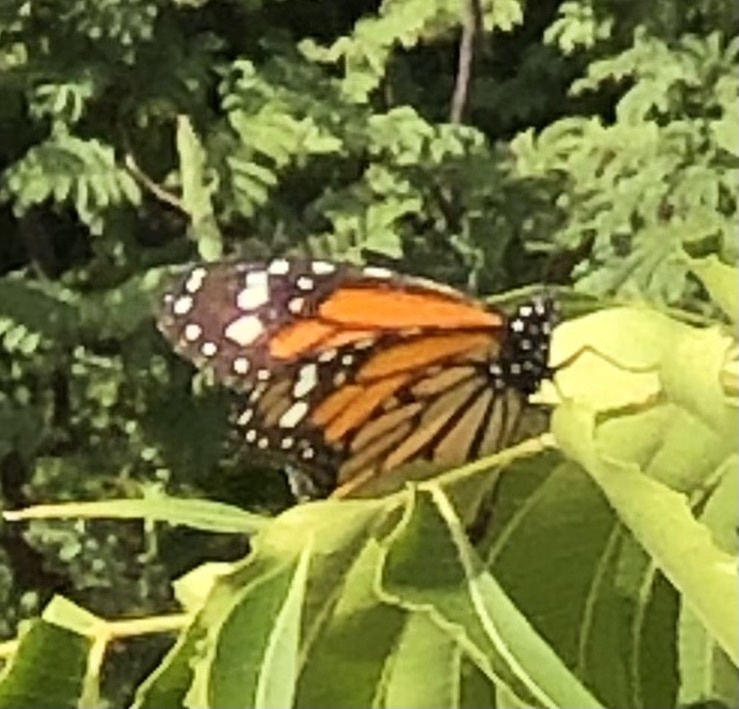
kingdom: Animalia
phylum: Arthropoda
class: Insecta
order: Lepidoptera
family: Nymphalidae
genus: Danaus
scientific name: Danaus plexippus
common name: Monarch
